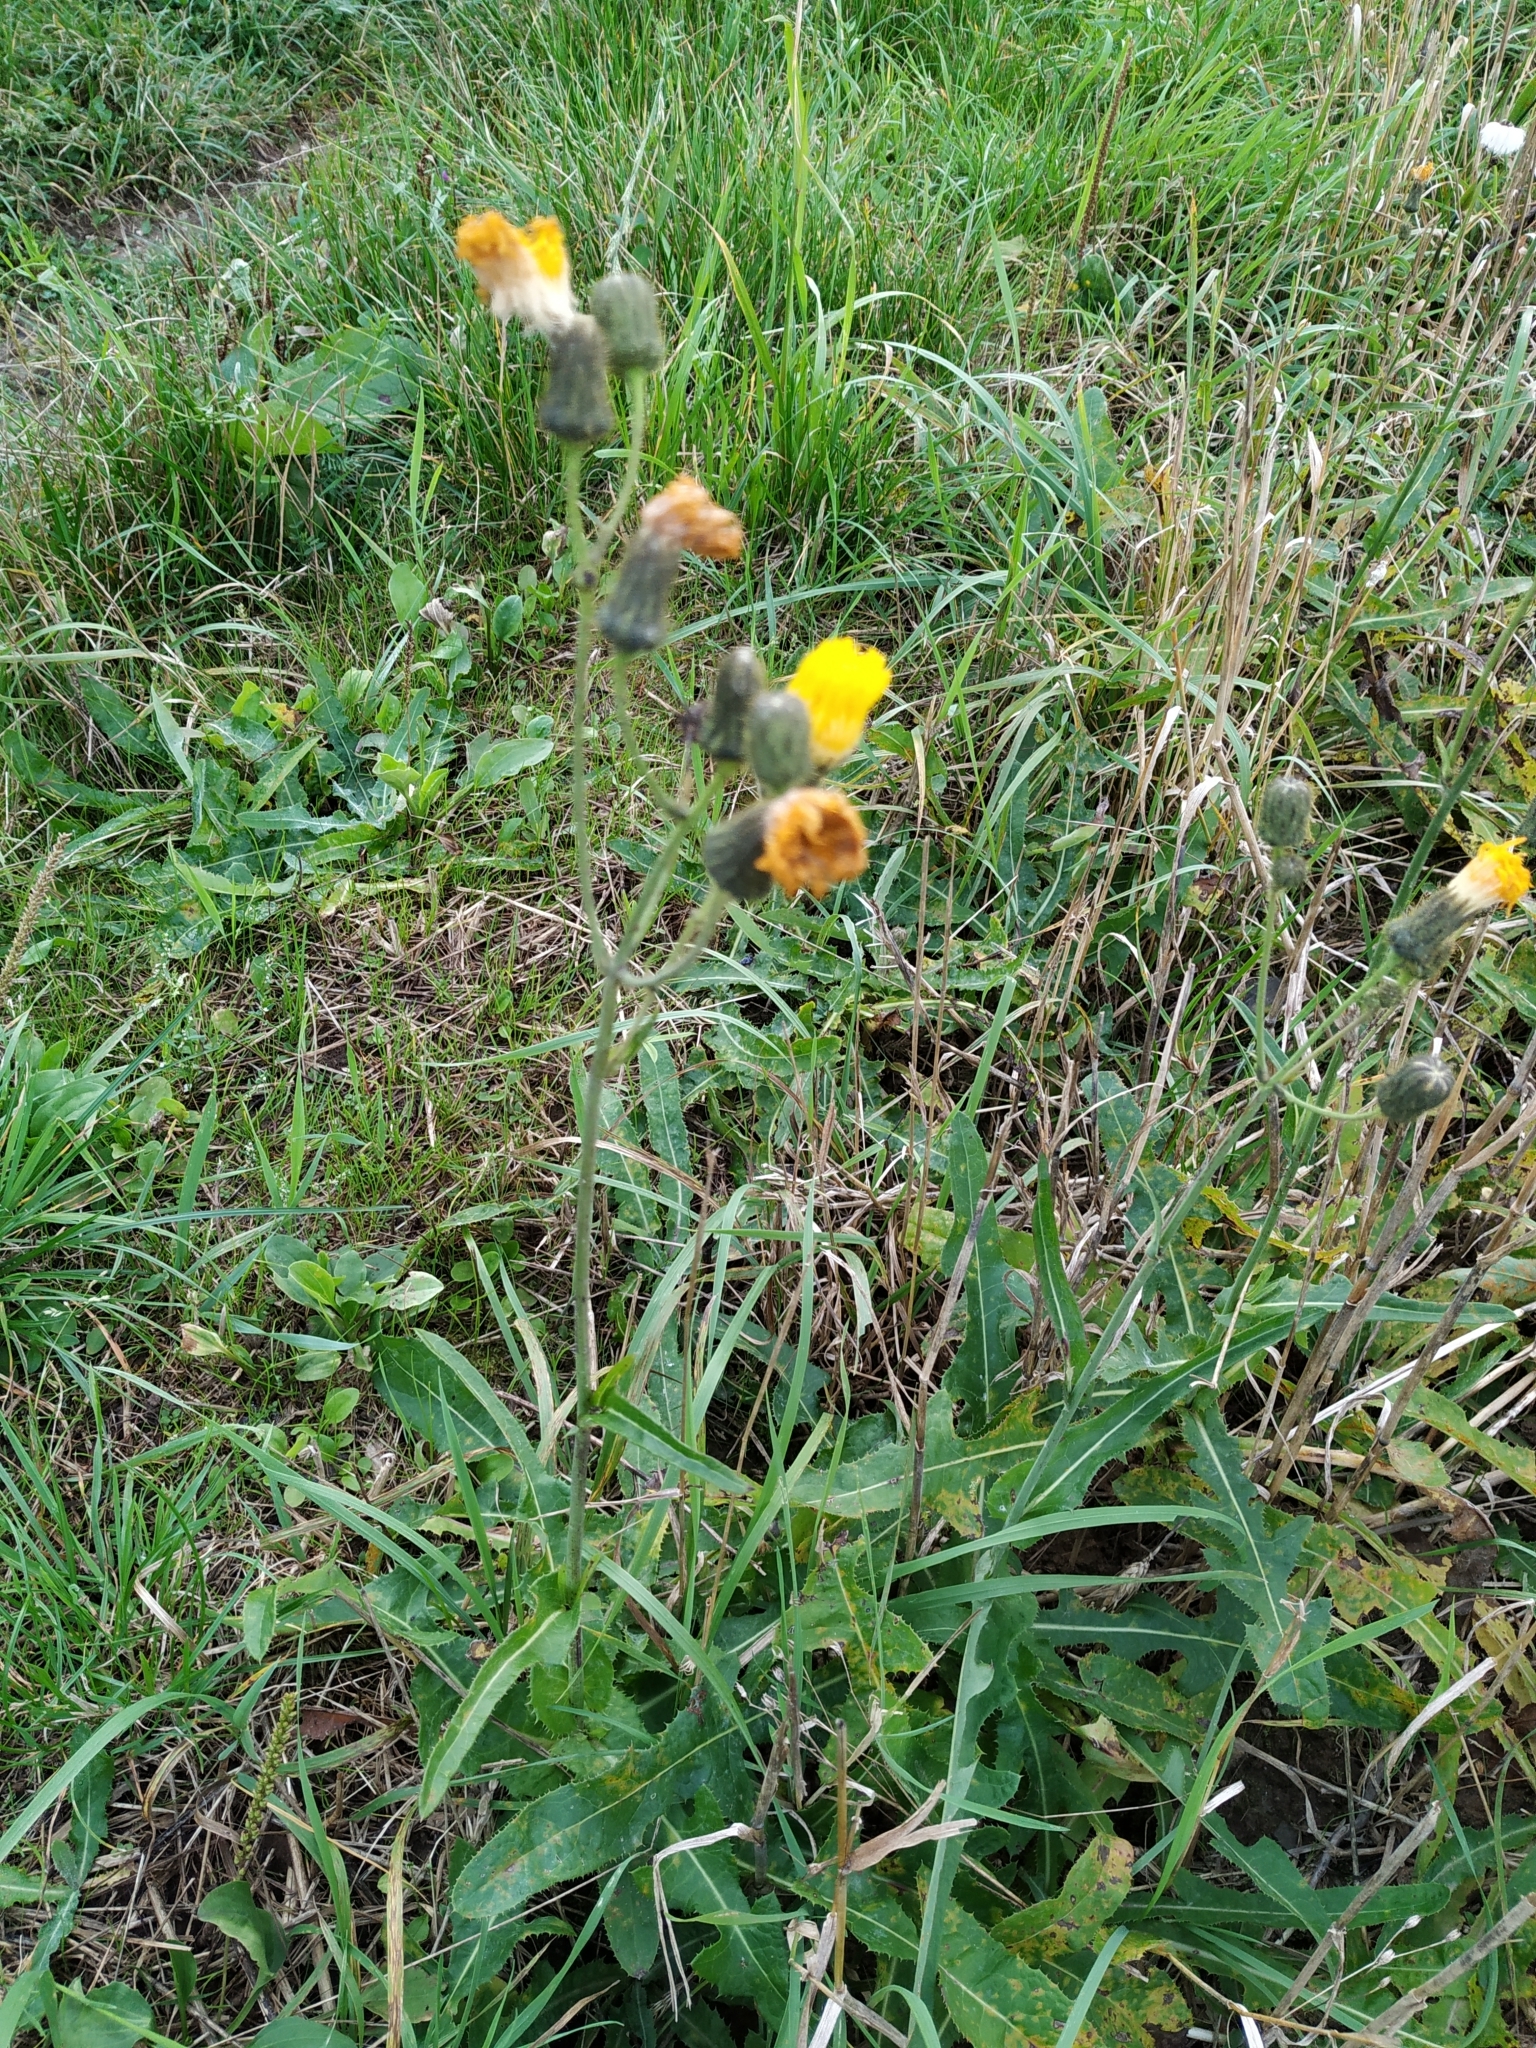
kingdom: Plantae
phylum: Tracheophyta
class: Magnoliopsida
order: Asterales
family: Asteraceae
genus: Sonchus
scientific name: Sonchus arvensis
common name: Perennial sow-thistle
